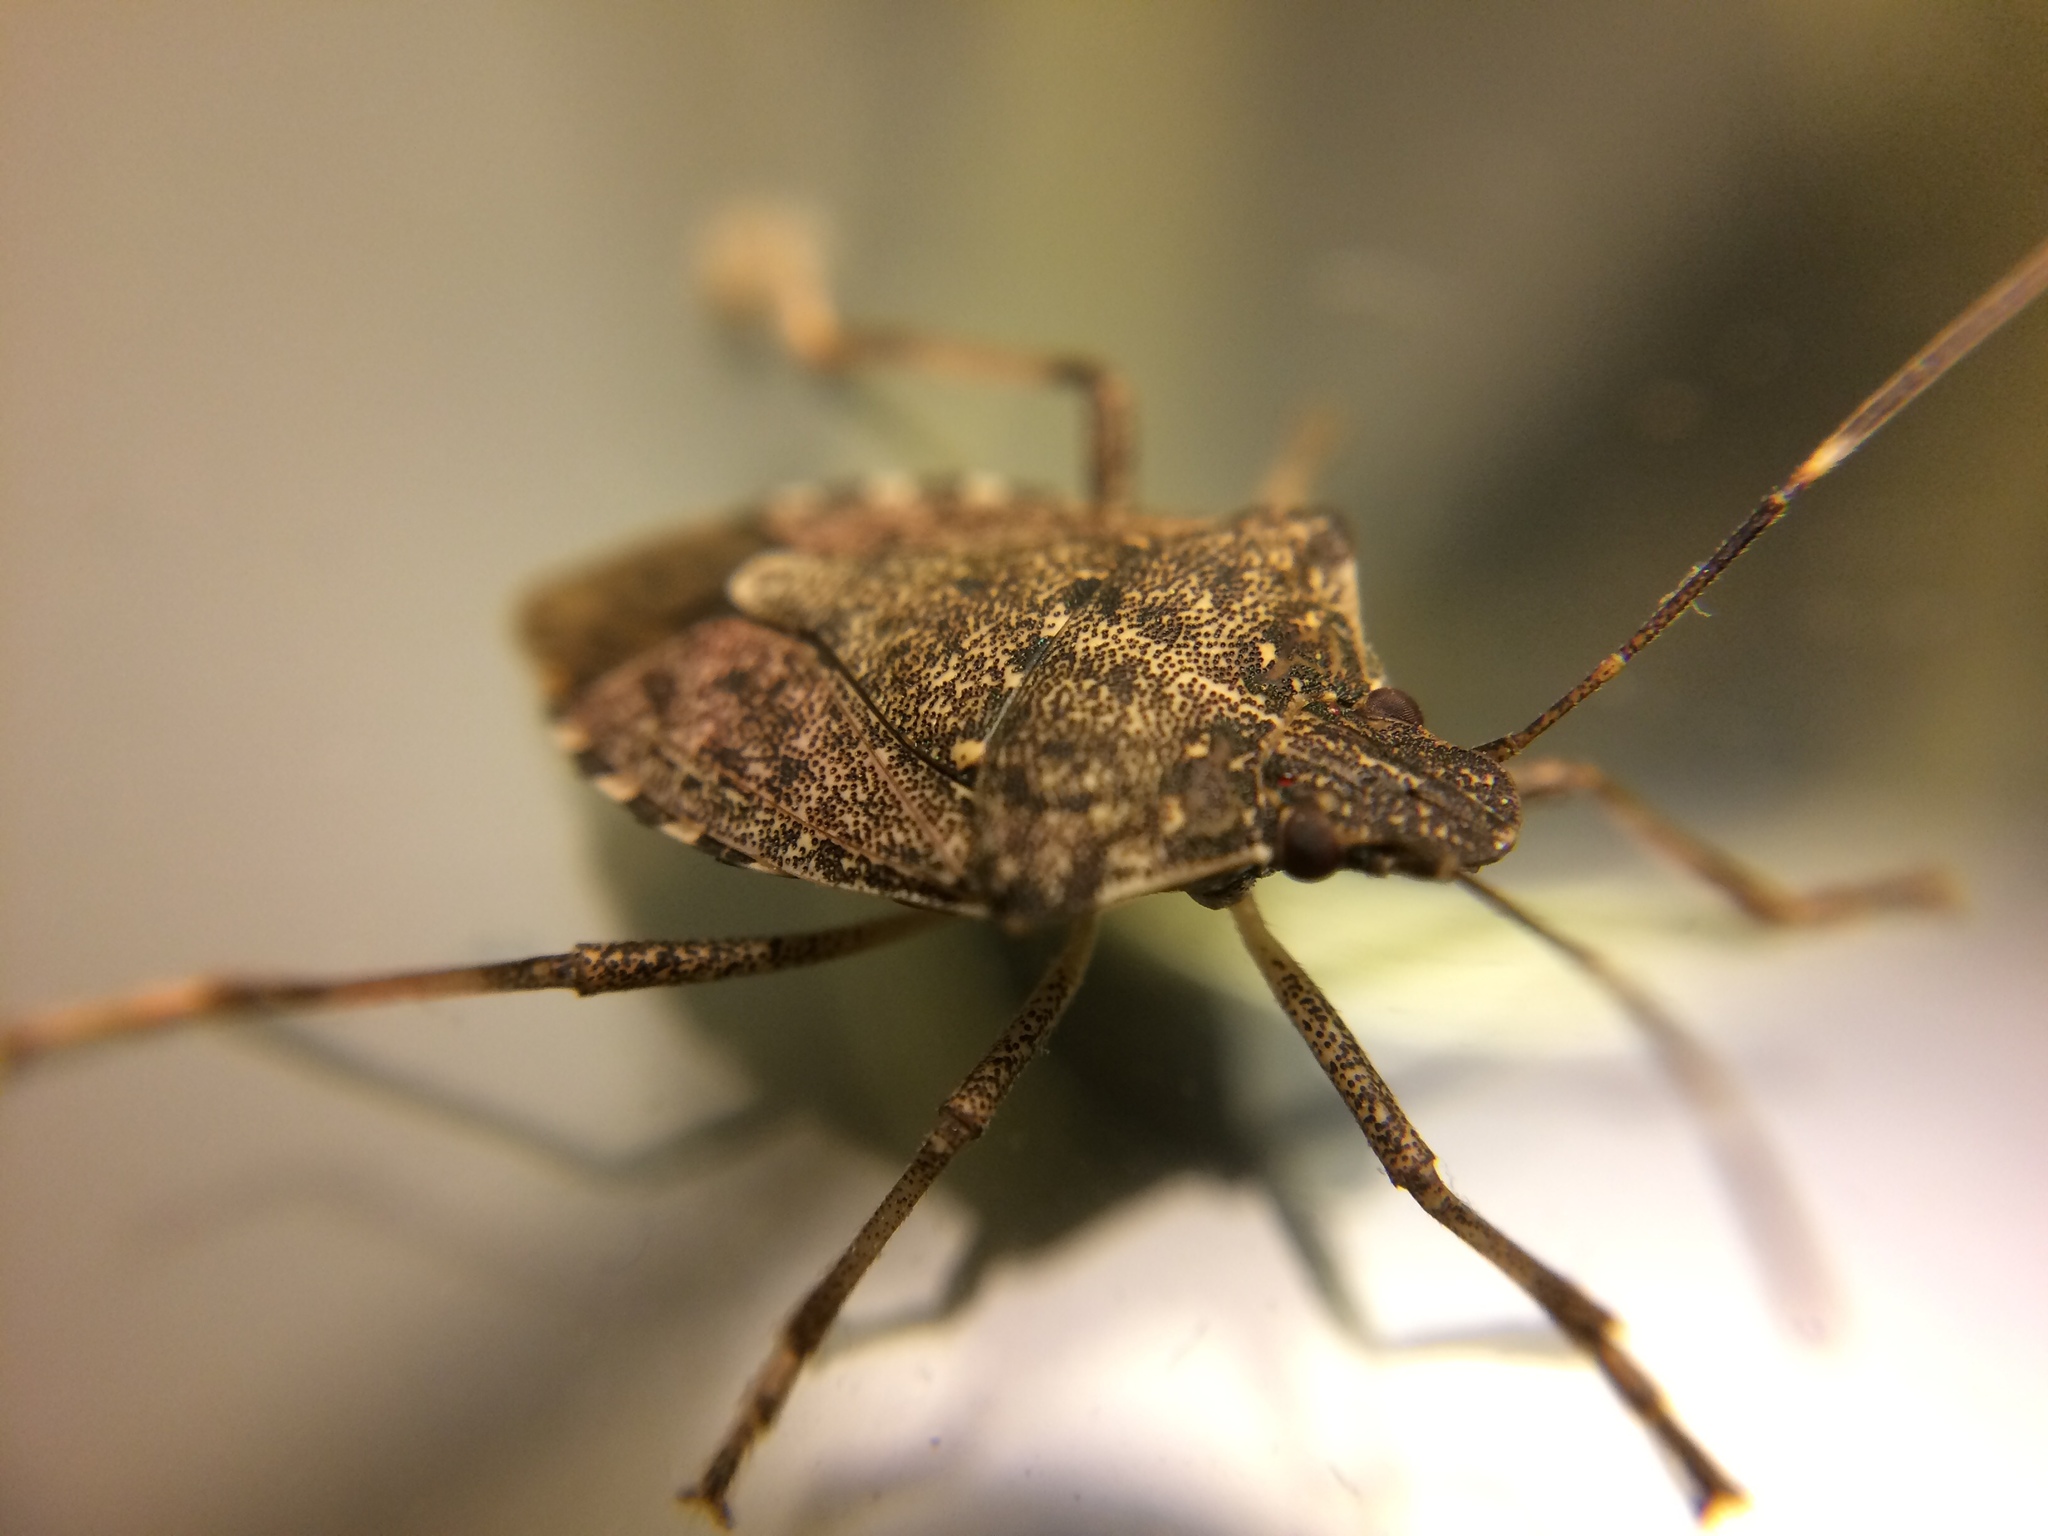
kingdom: Animalia
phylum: Arthropoda
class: Insecta
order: Hemiptera
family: Pentatomidae
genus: Halyomorpha
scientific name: Halyomorpha halys
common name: Brown marmorated stink bug
